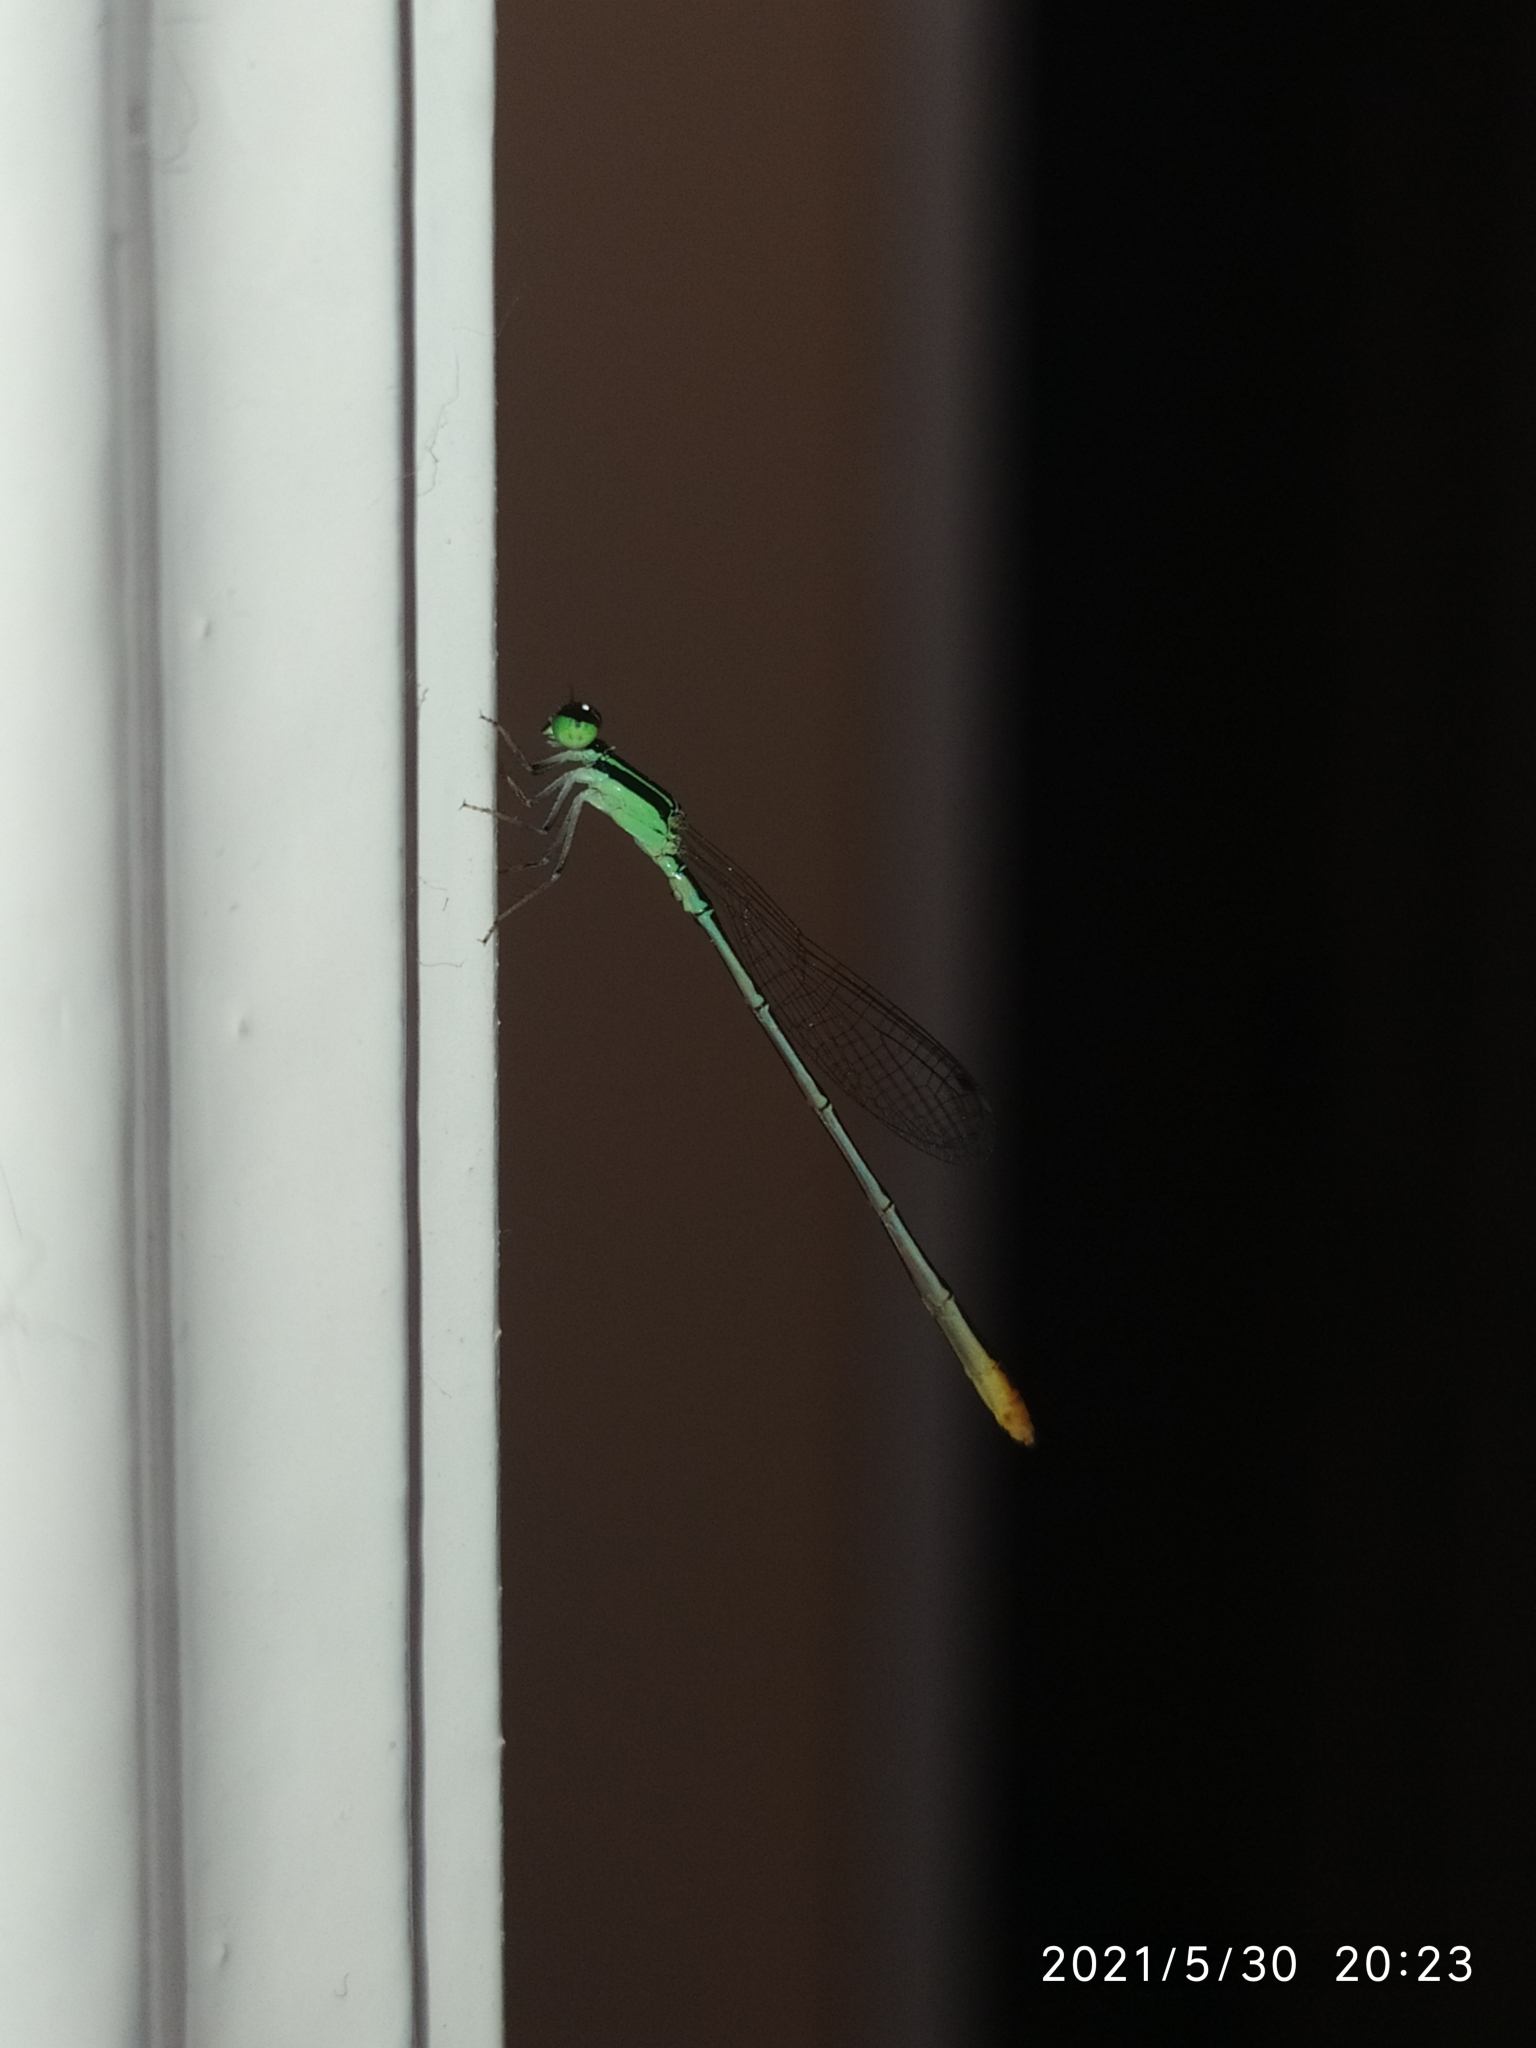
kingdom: Animalia
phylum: Arthropoda
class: Insecta
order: Odonata
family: Coenagrionidae
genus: Agriocnemis
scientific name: Agriocnemis pygmaea
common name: Pygmy wisp
